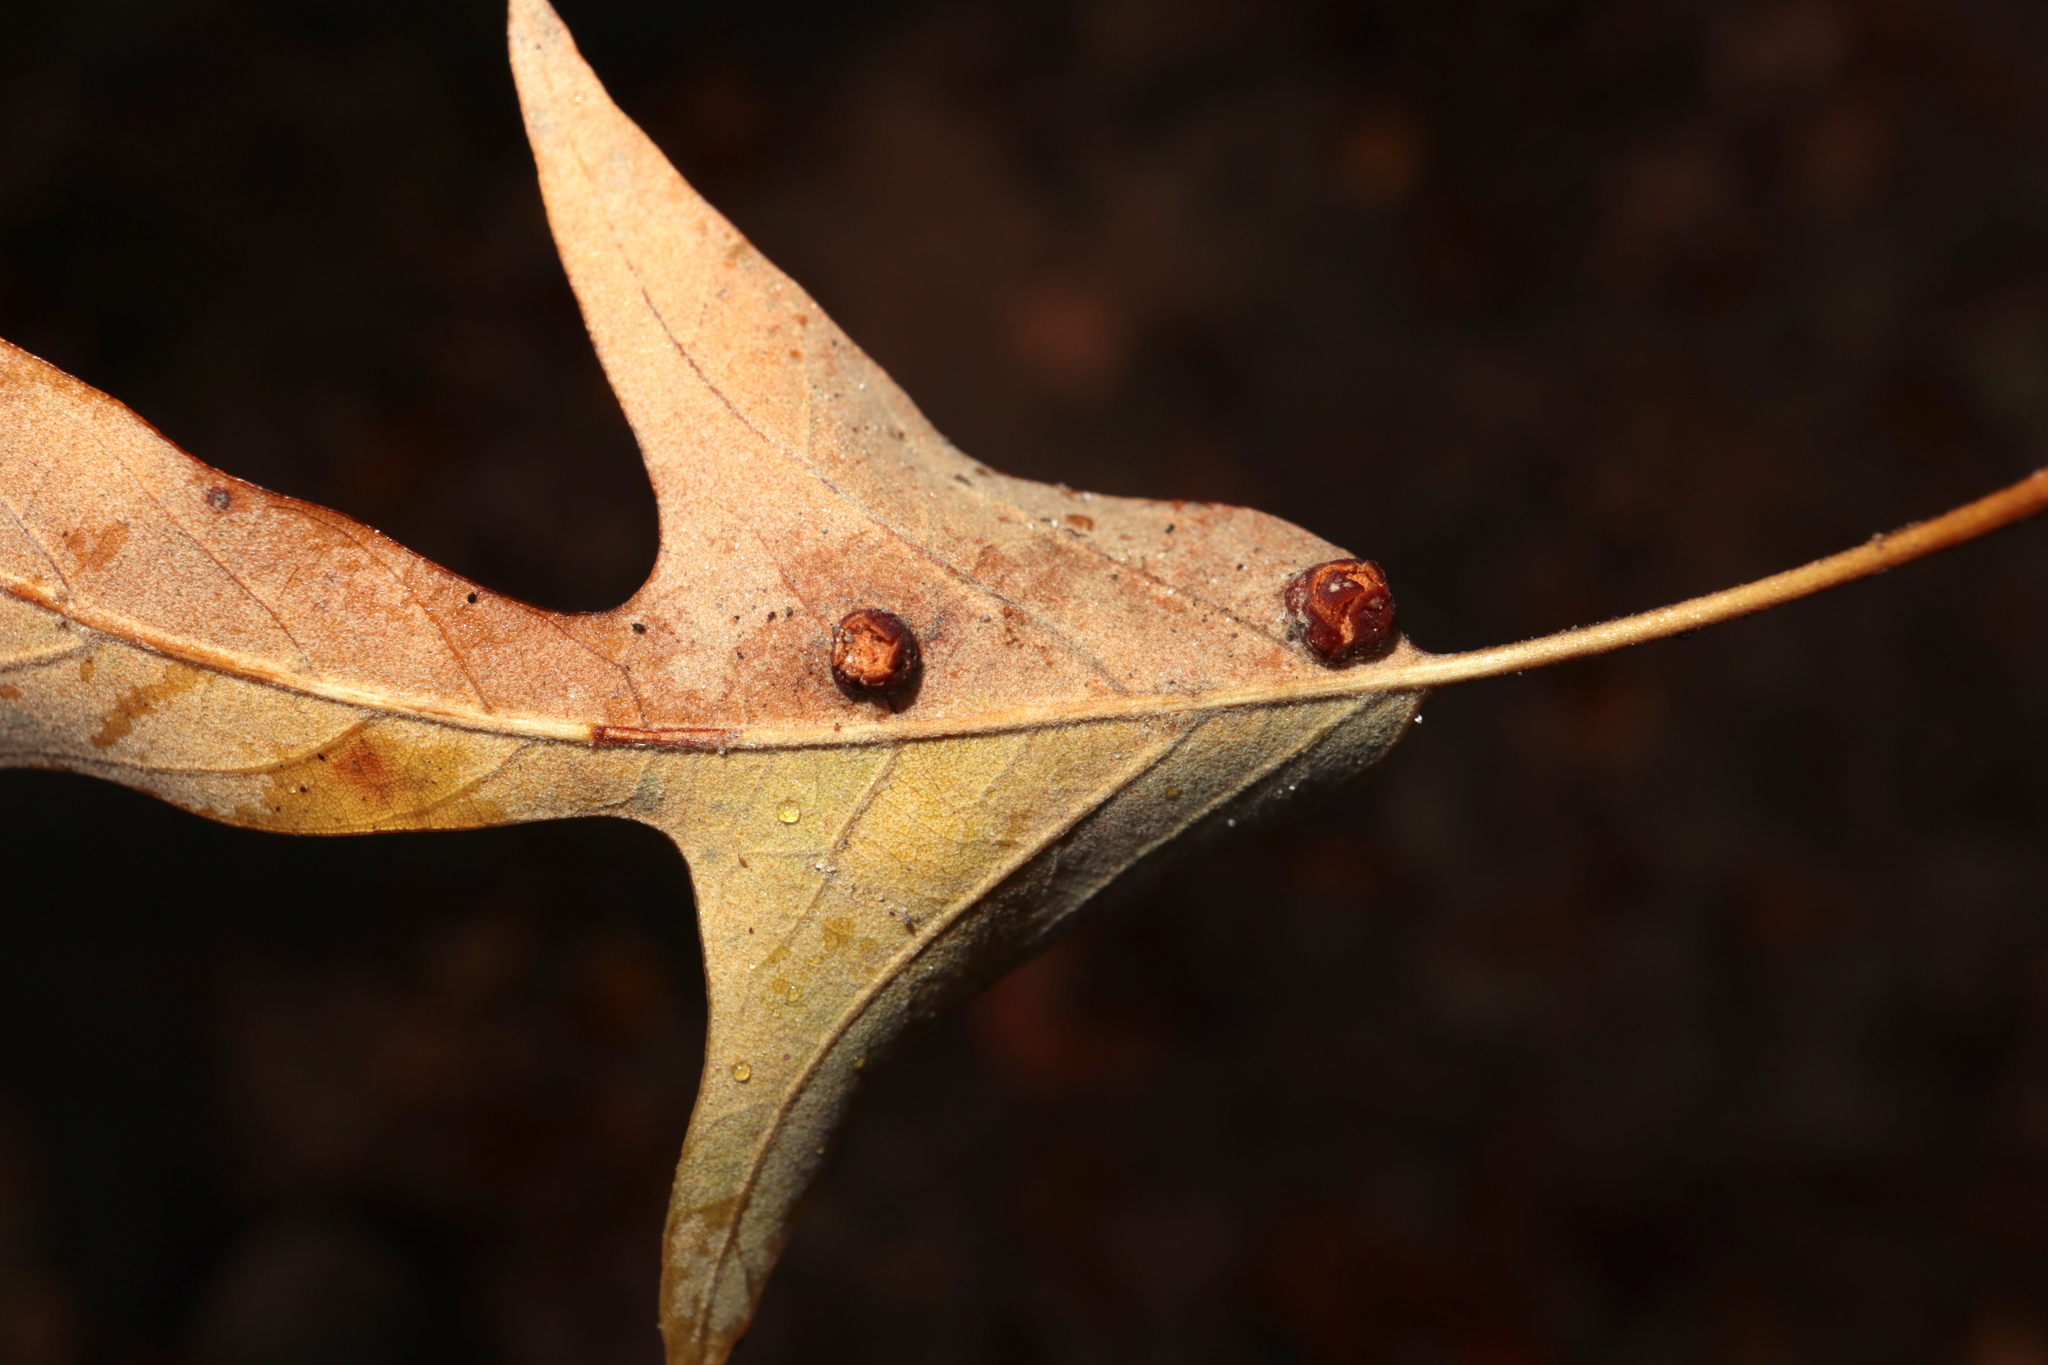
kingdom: Animalia
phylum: Arthropoda
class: Insecta
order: Diptera
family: Cecidomyiidae
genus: Polystepha
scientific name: Polystepha symmetrica
